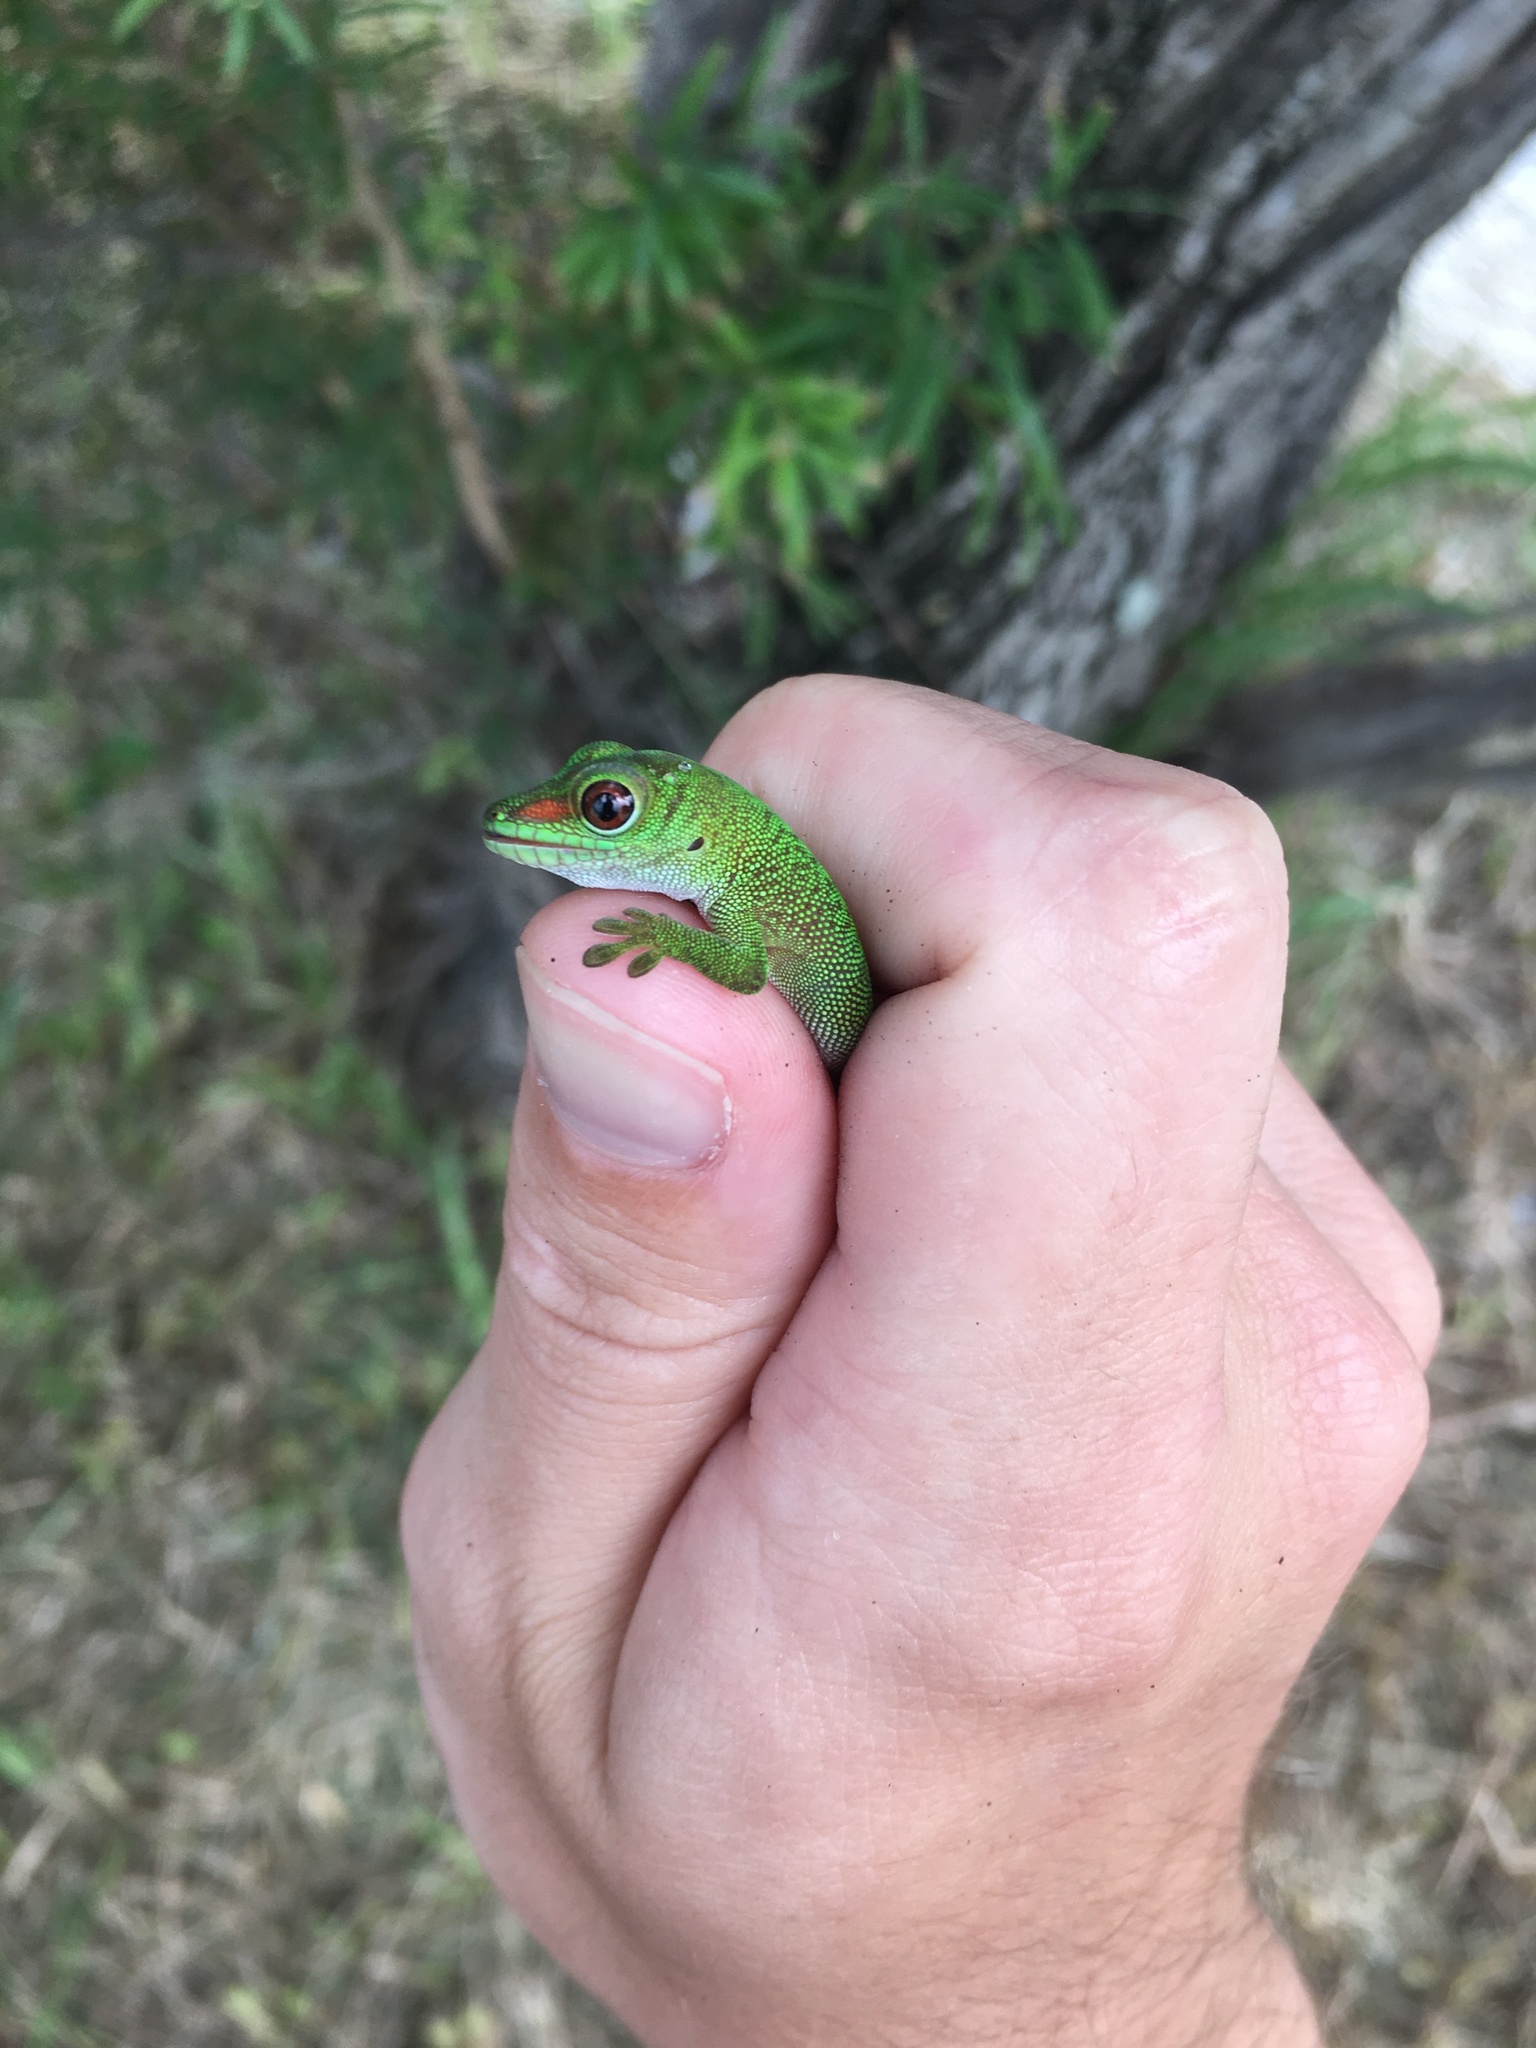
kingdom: Animalia
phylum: Chordata
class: Squamata
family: Gekkonidae
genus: Phelsuma
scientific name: Phelsuma grandis
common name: Madagascar giant day gecko
